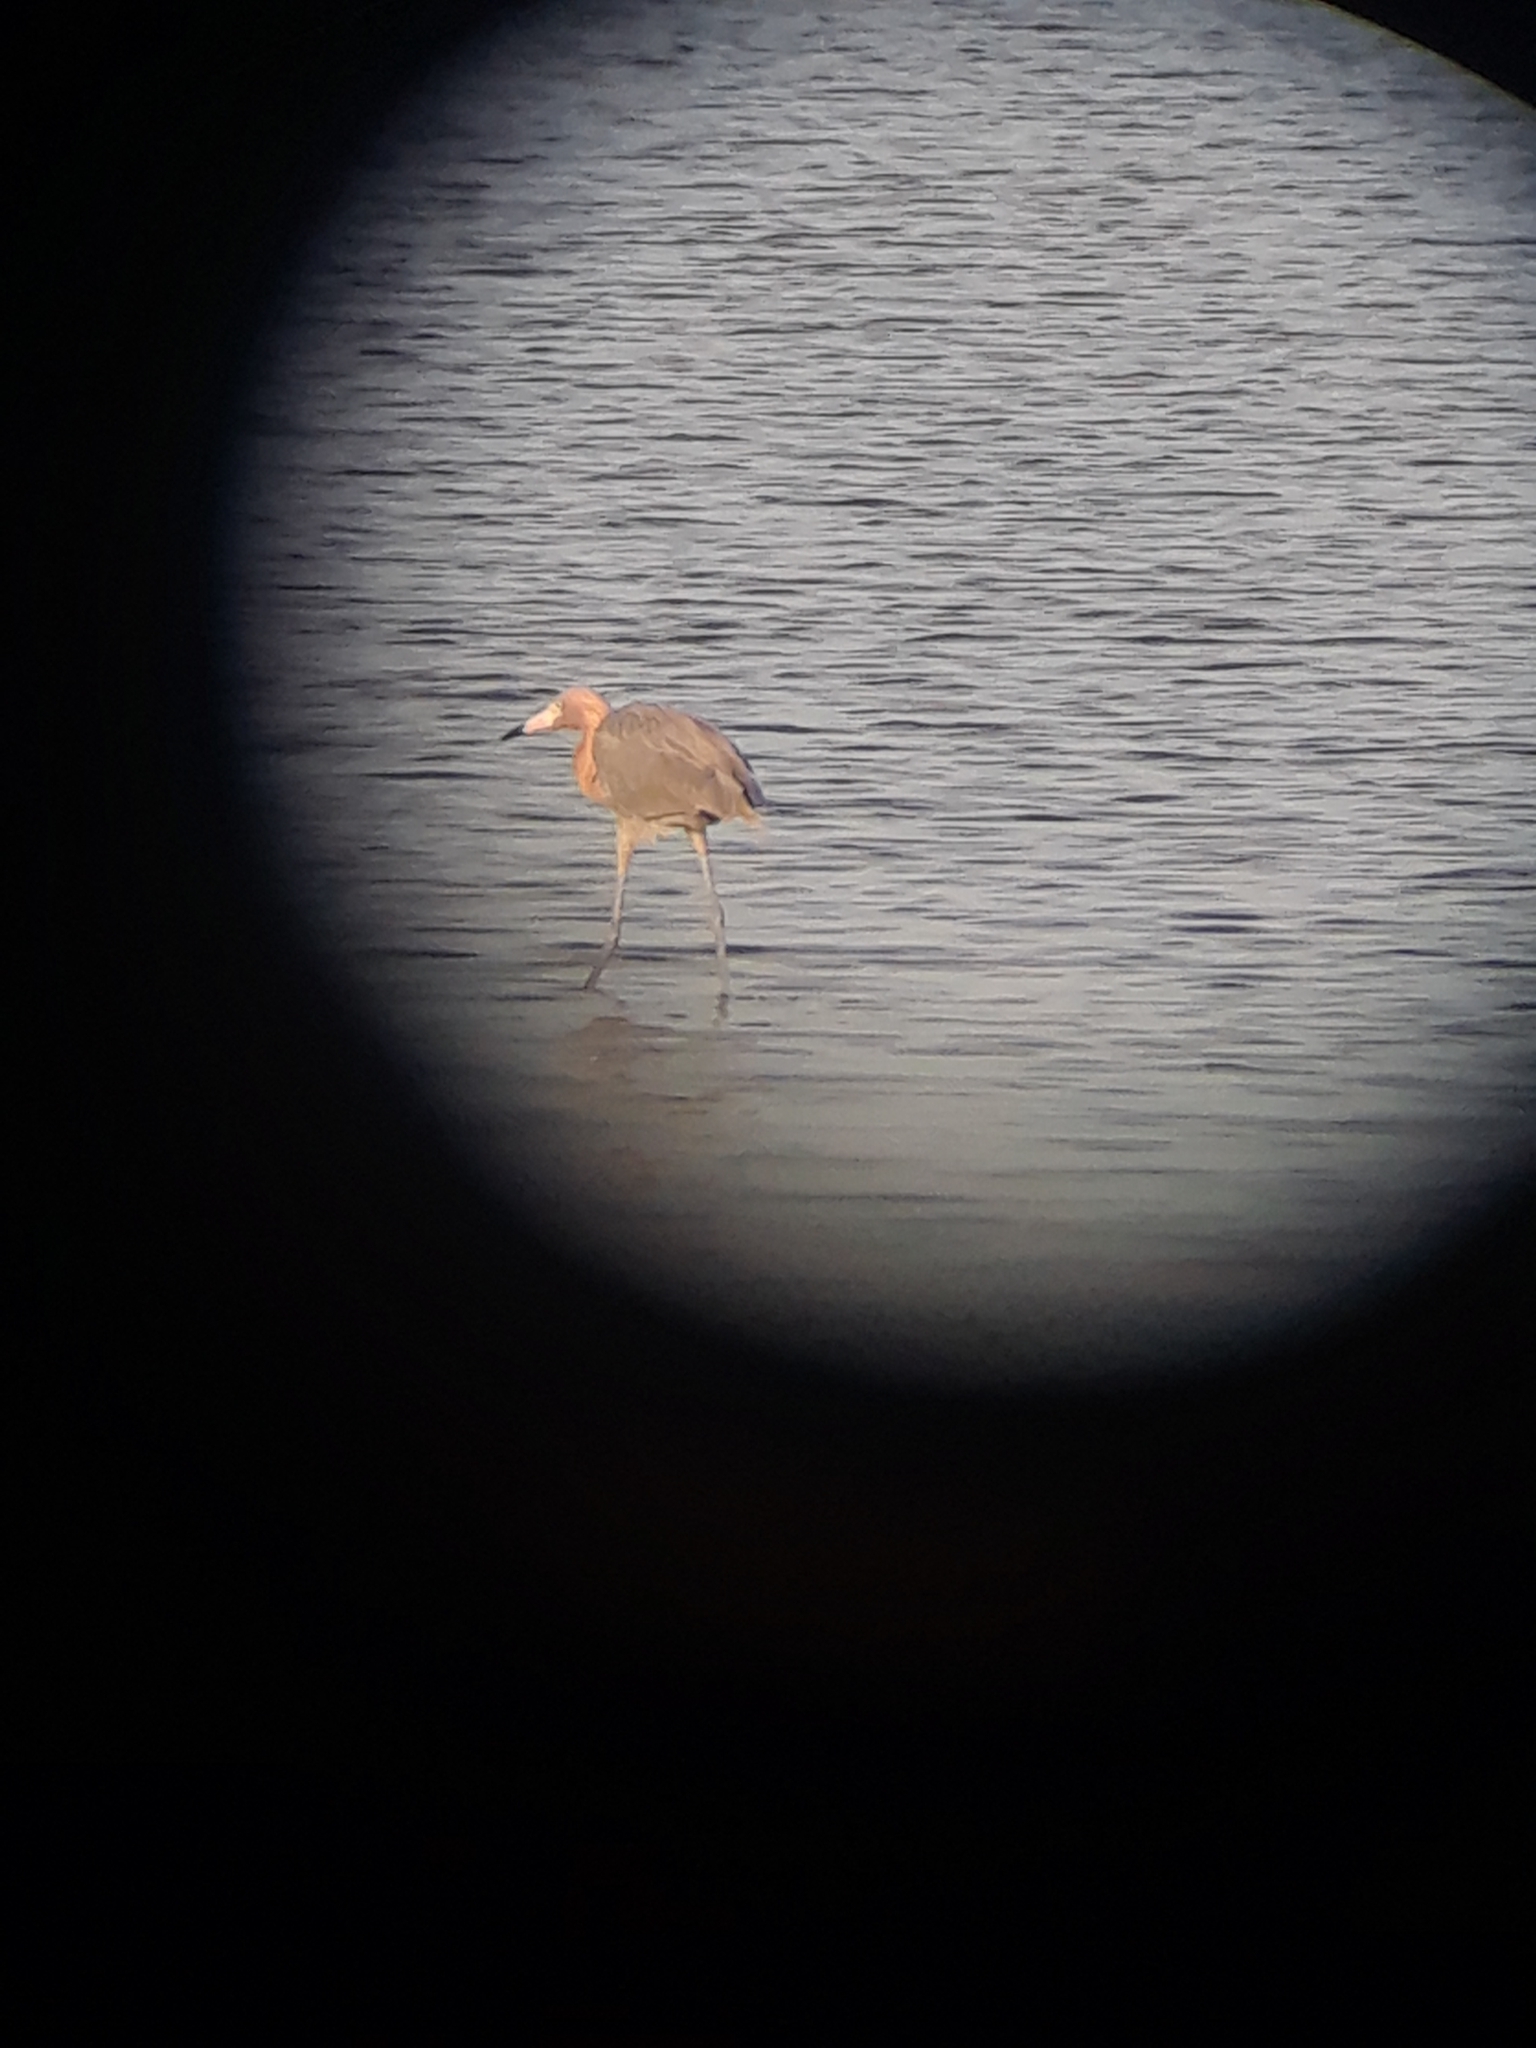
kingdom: Animalia
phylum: Chordata
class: Aves
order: Pelecaniformes
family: Ardeidae
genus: Egretta
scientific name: Egretta rufescens
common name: Reddish egret
